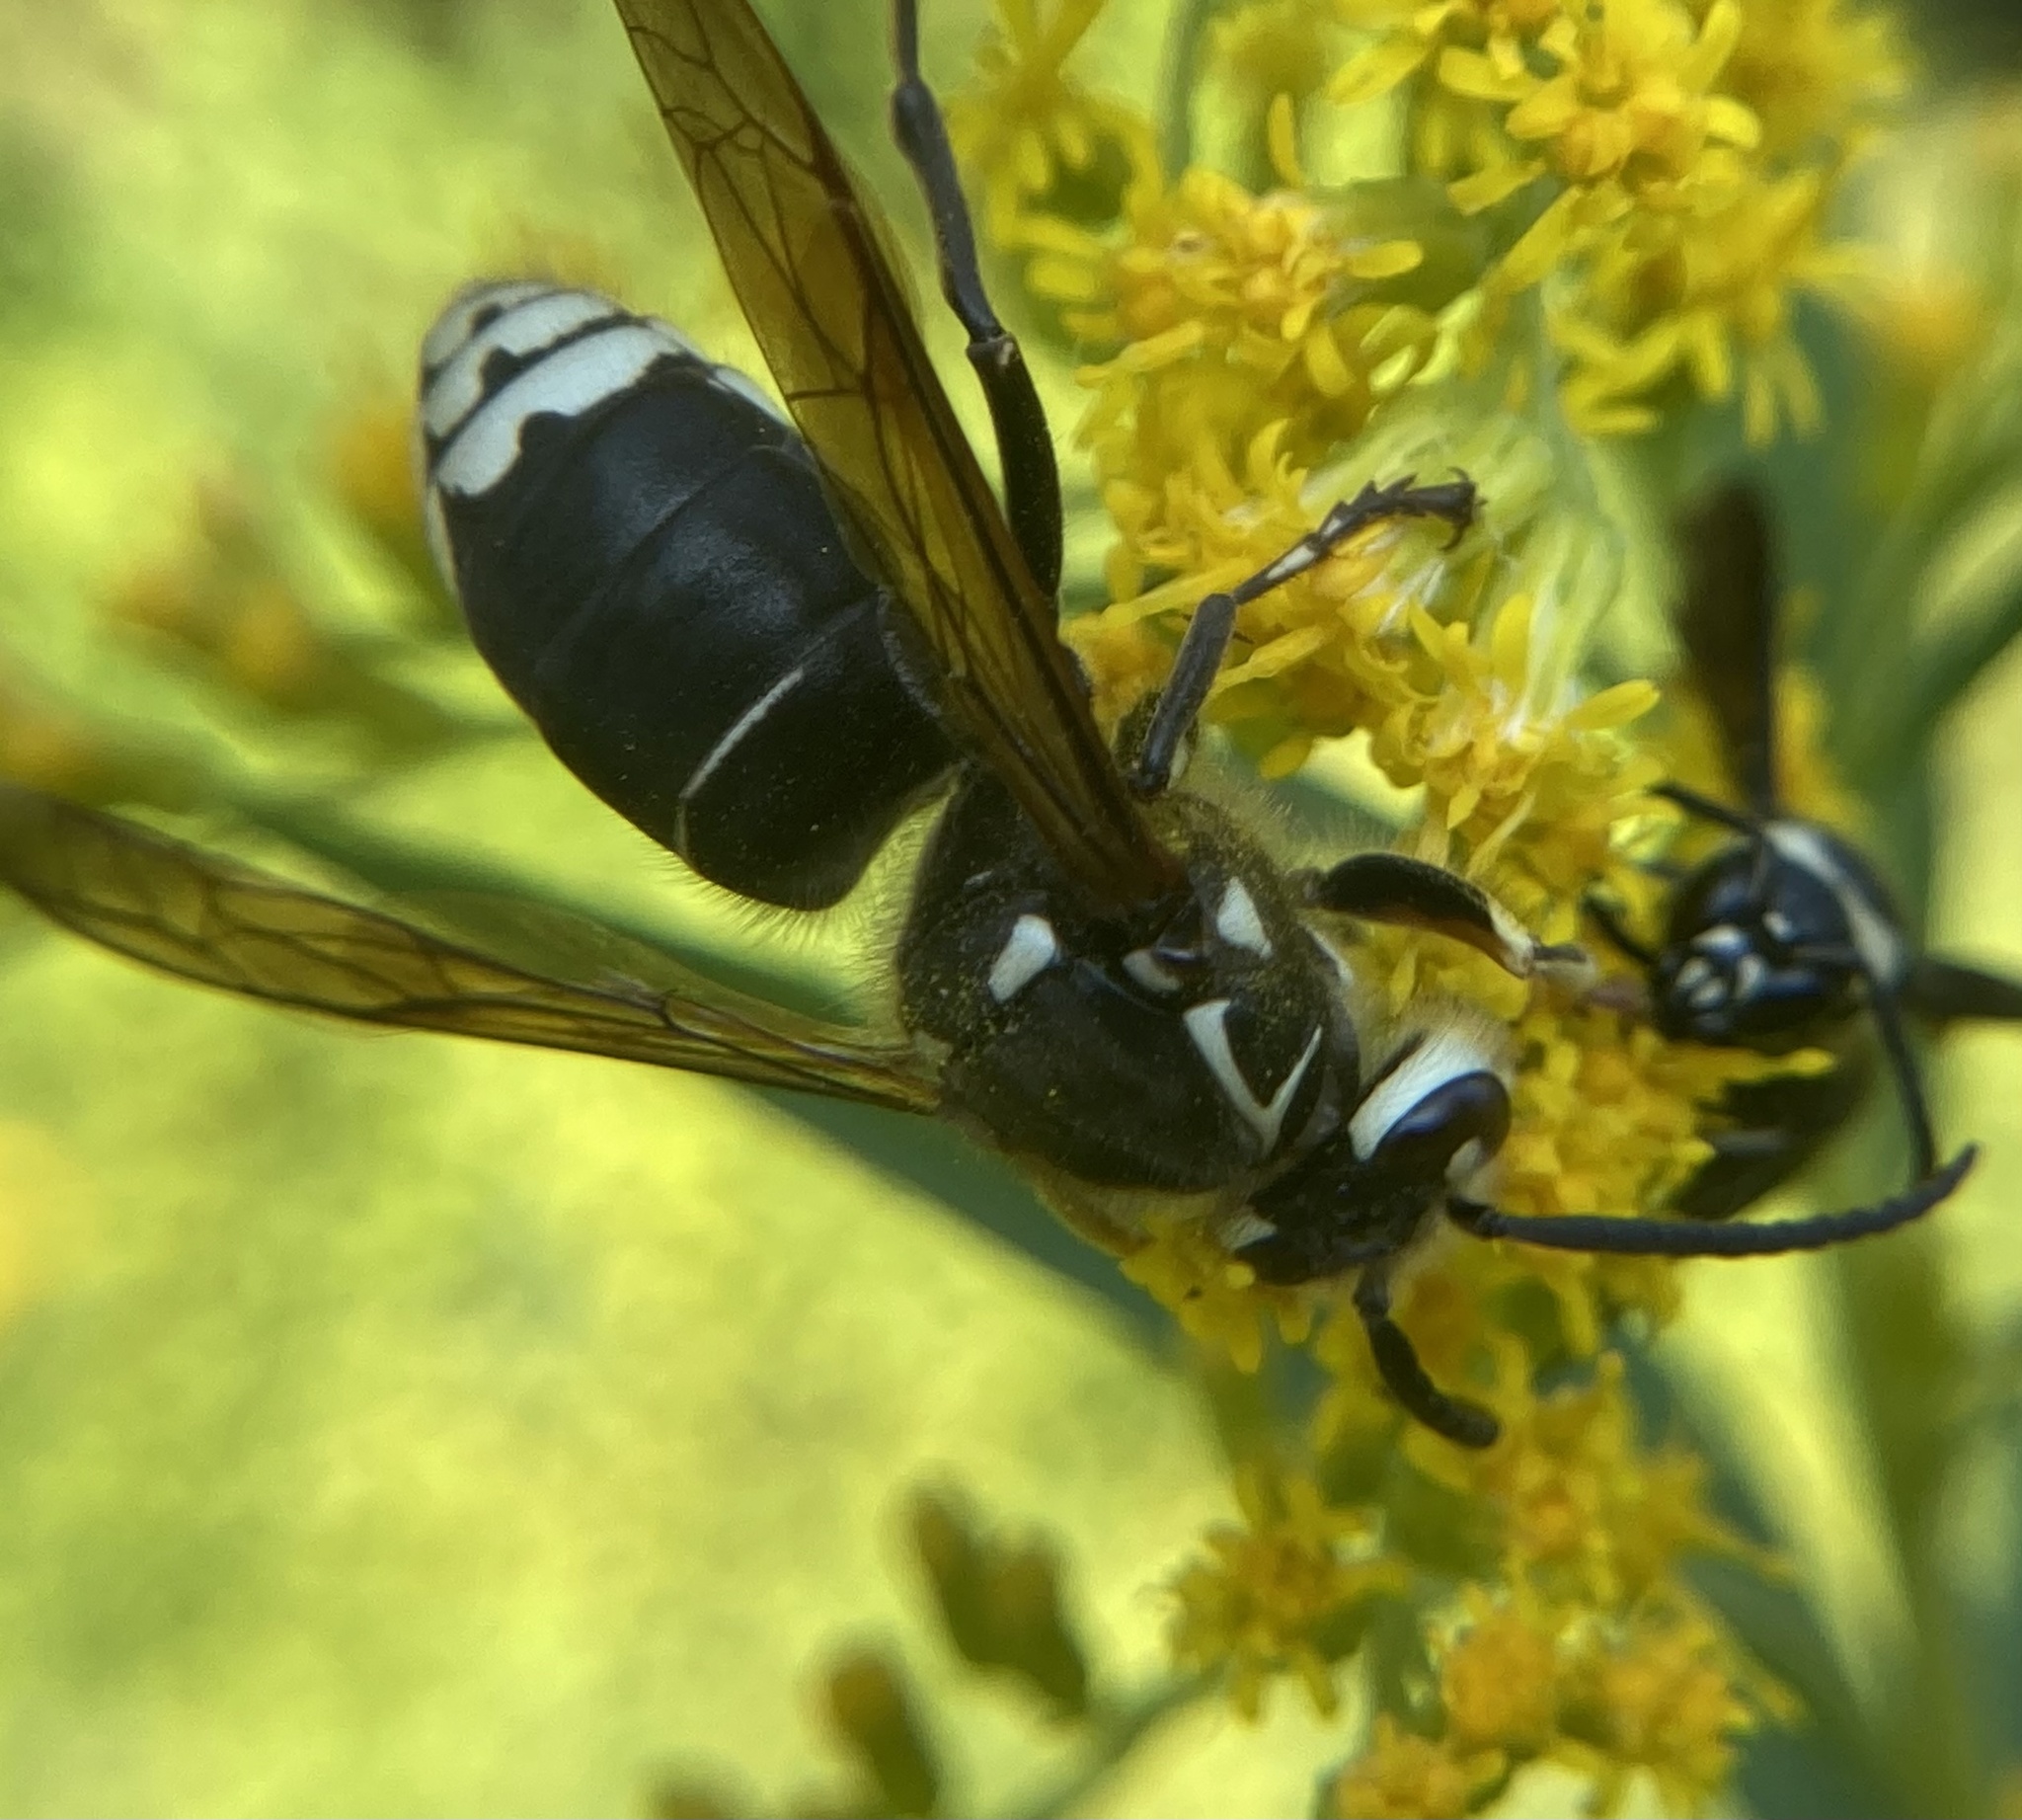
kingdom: Animalia
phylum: Arthropoda
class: Insecta
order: Hymenoptera
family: Vespidae
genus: Dolichovespula
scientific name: Dolichovespula maculata
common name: Bald-faced hornet
